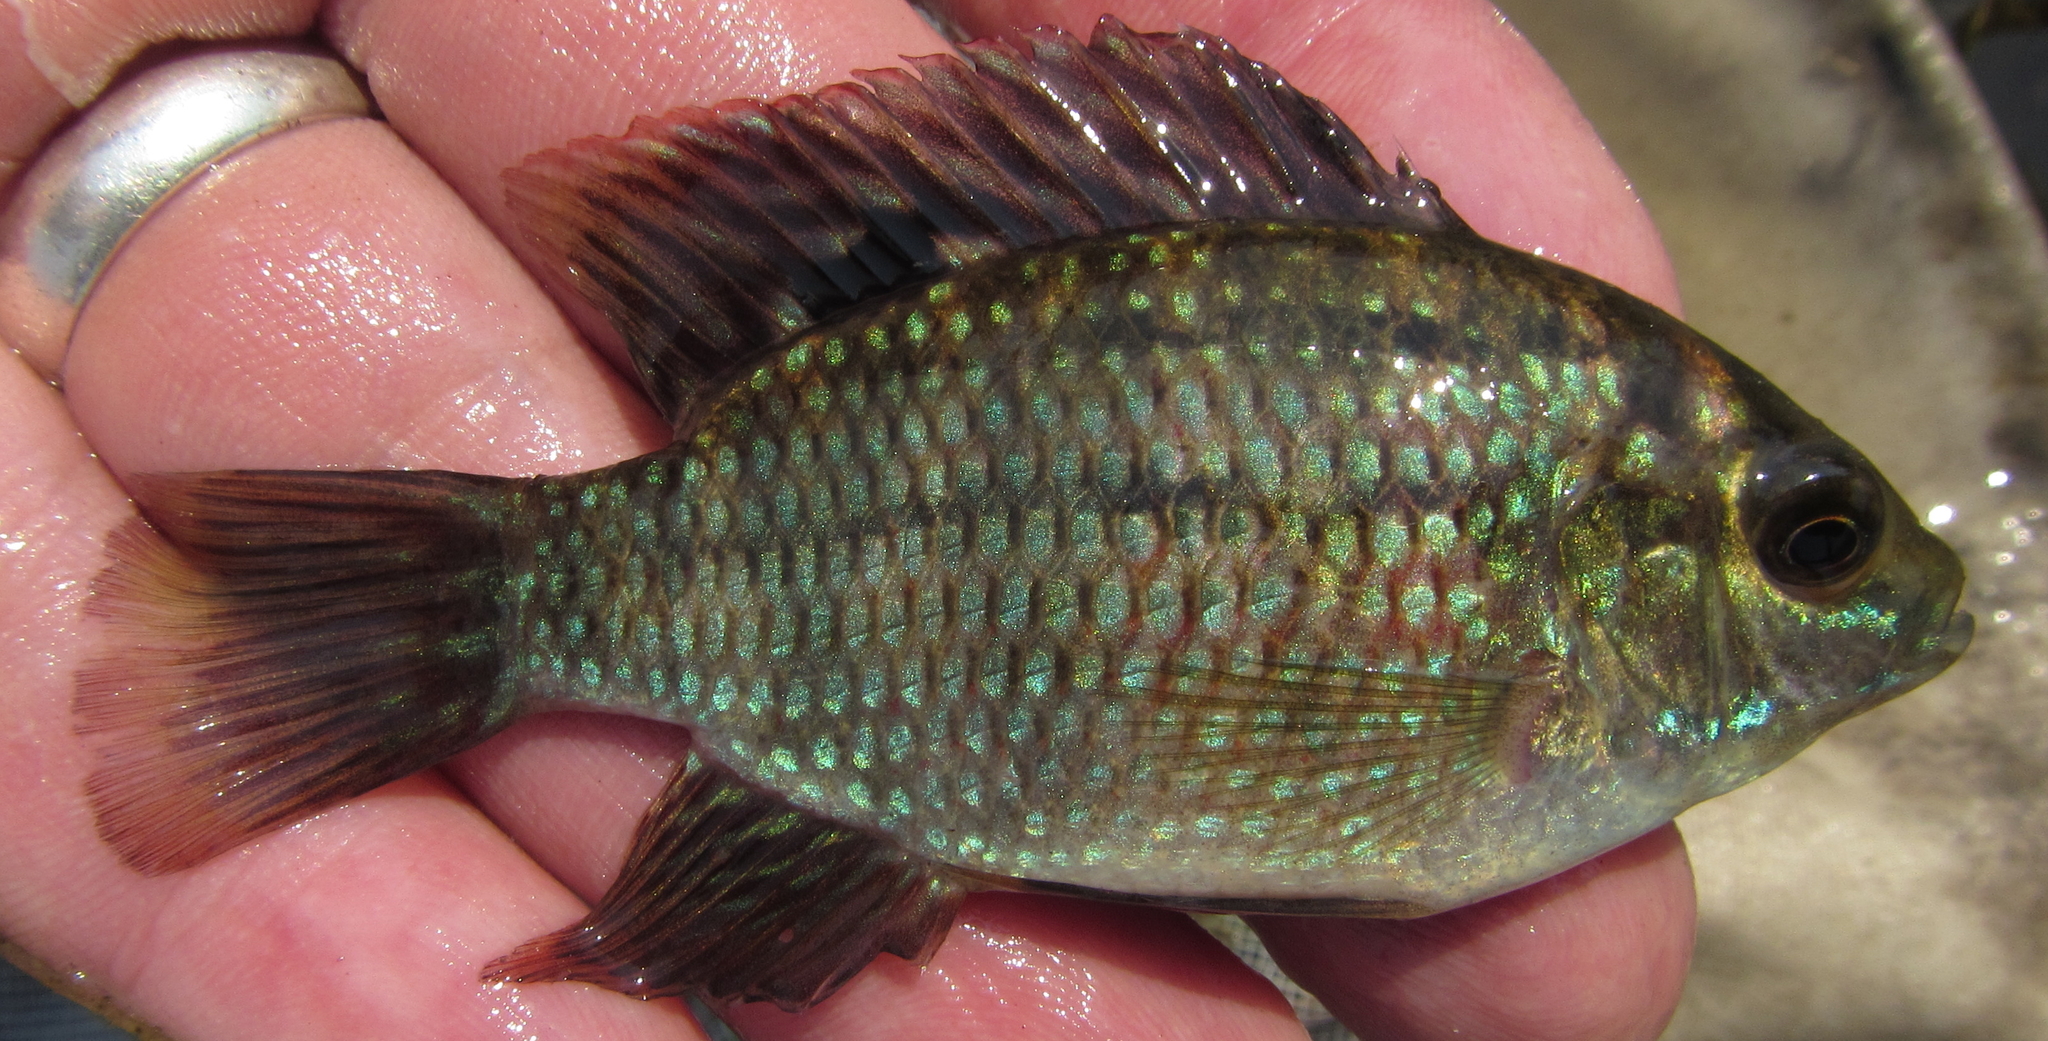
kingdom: Animalia
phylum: Chordata
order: Perciformes
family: Cichlidae
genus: Tilapia
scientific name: Tilapia sparrmanii
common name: Banded tilapia
